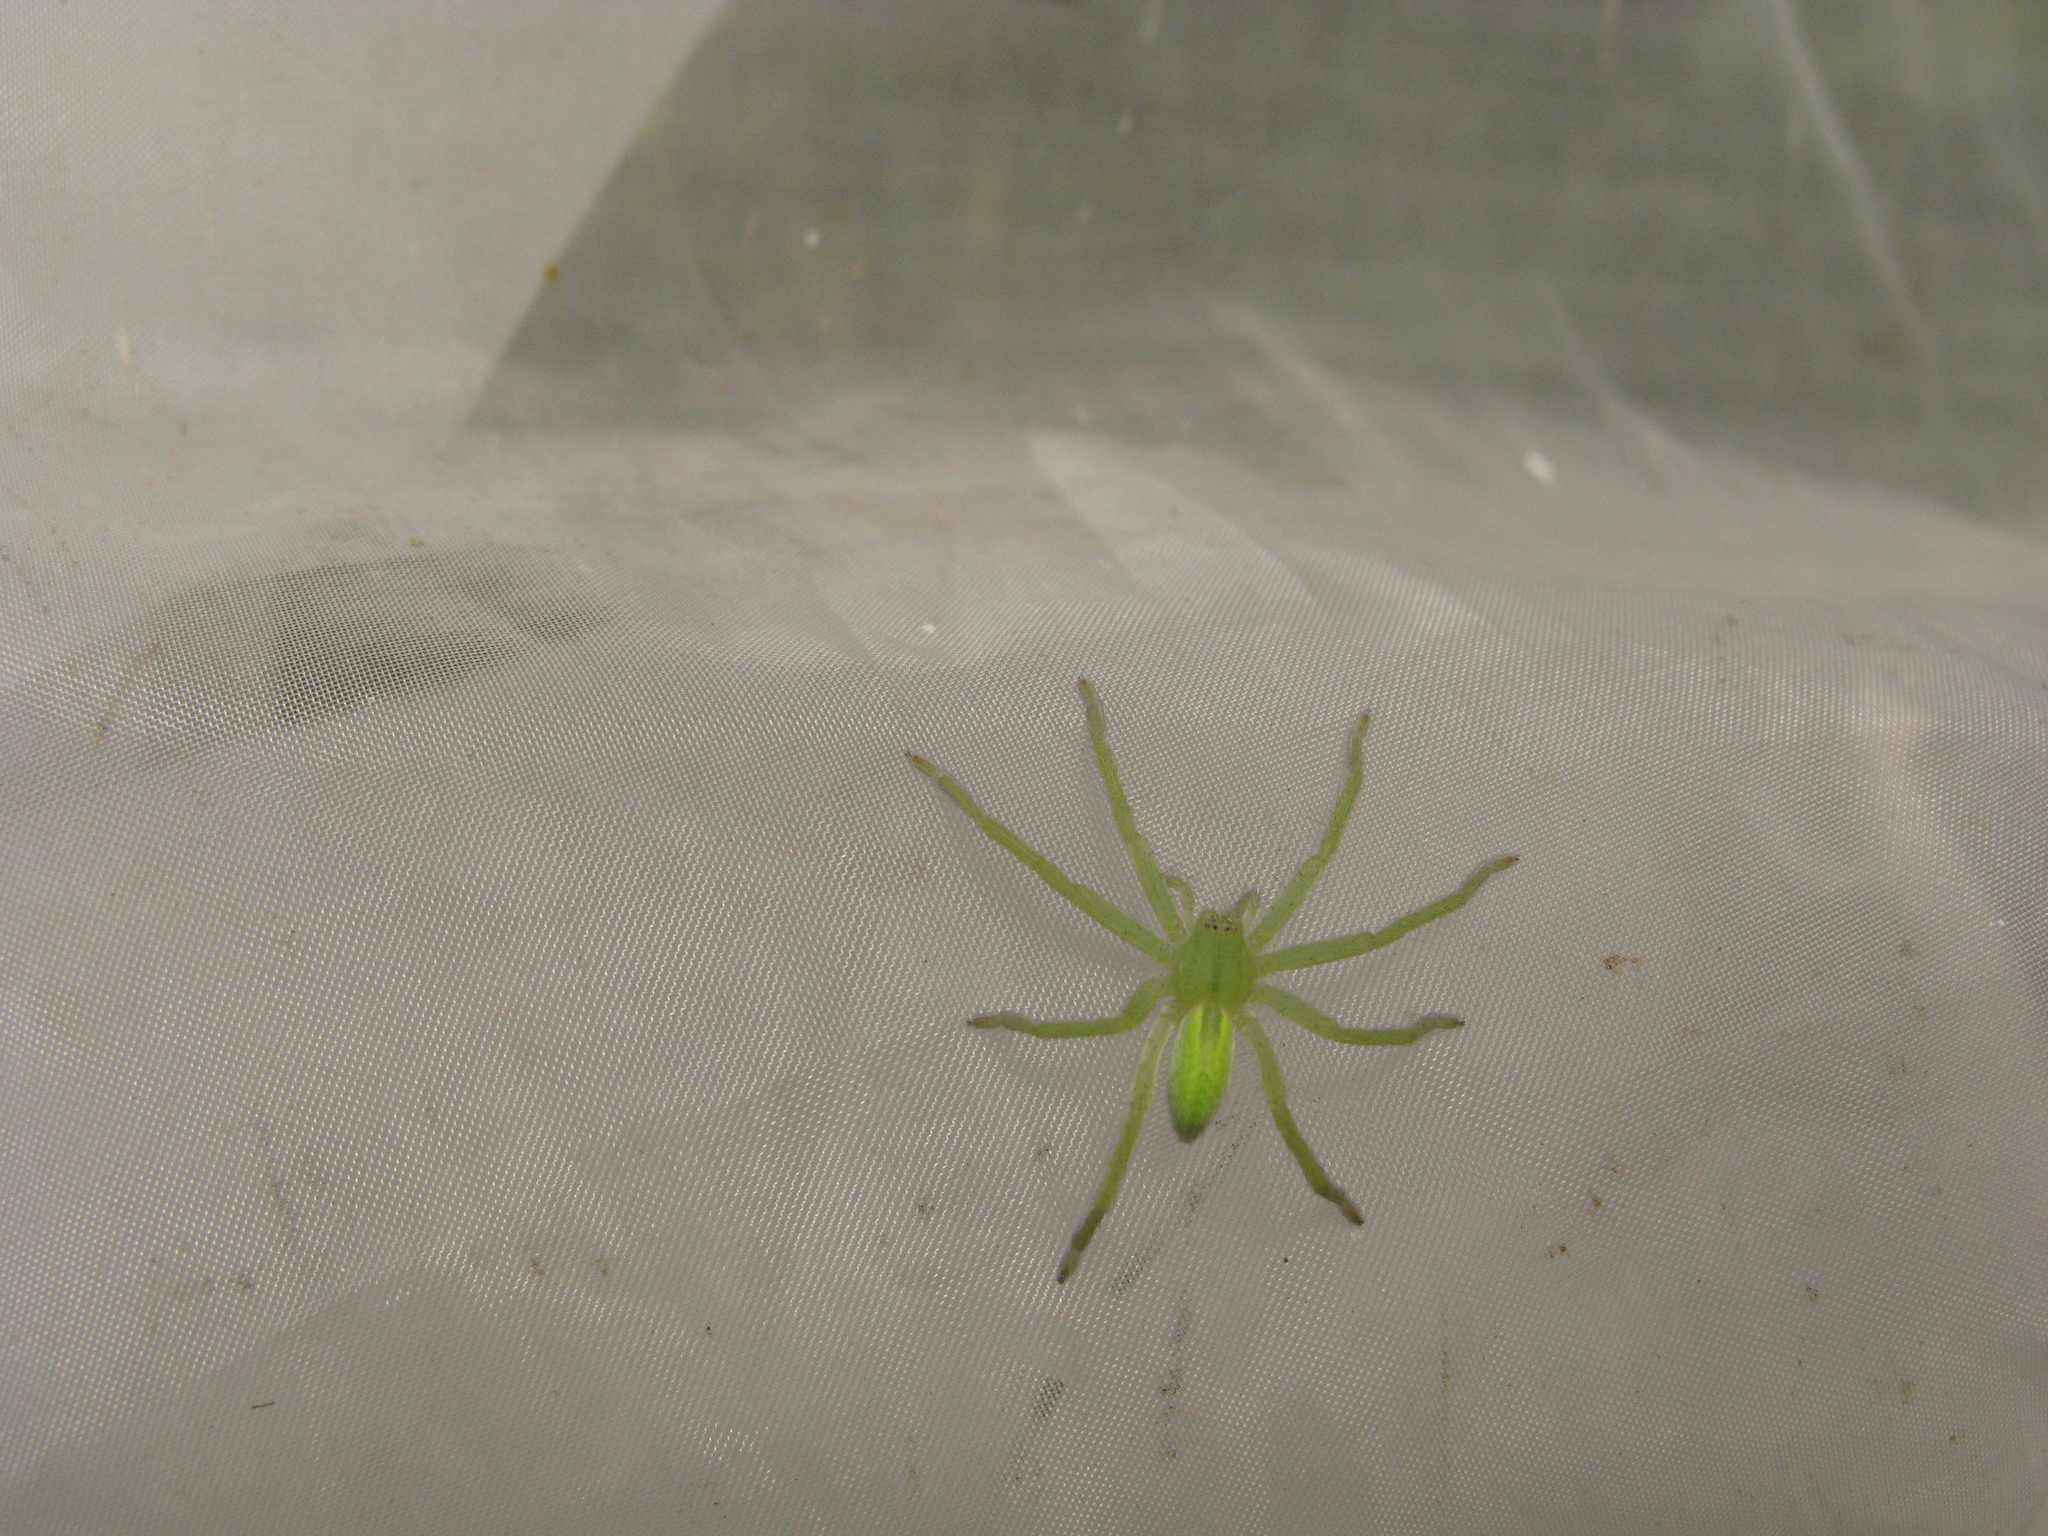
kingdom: Animalia
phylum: Arthropoda
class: Arachnida
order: Araneae
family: Sparassidae
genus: Micrommata
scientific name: Micrommata virescens
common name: Green spider
